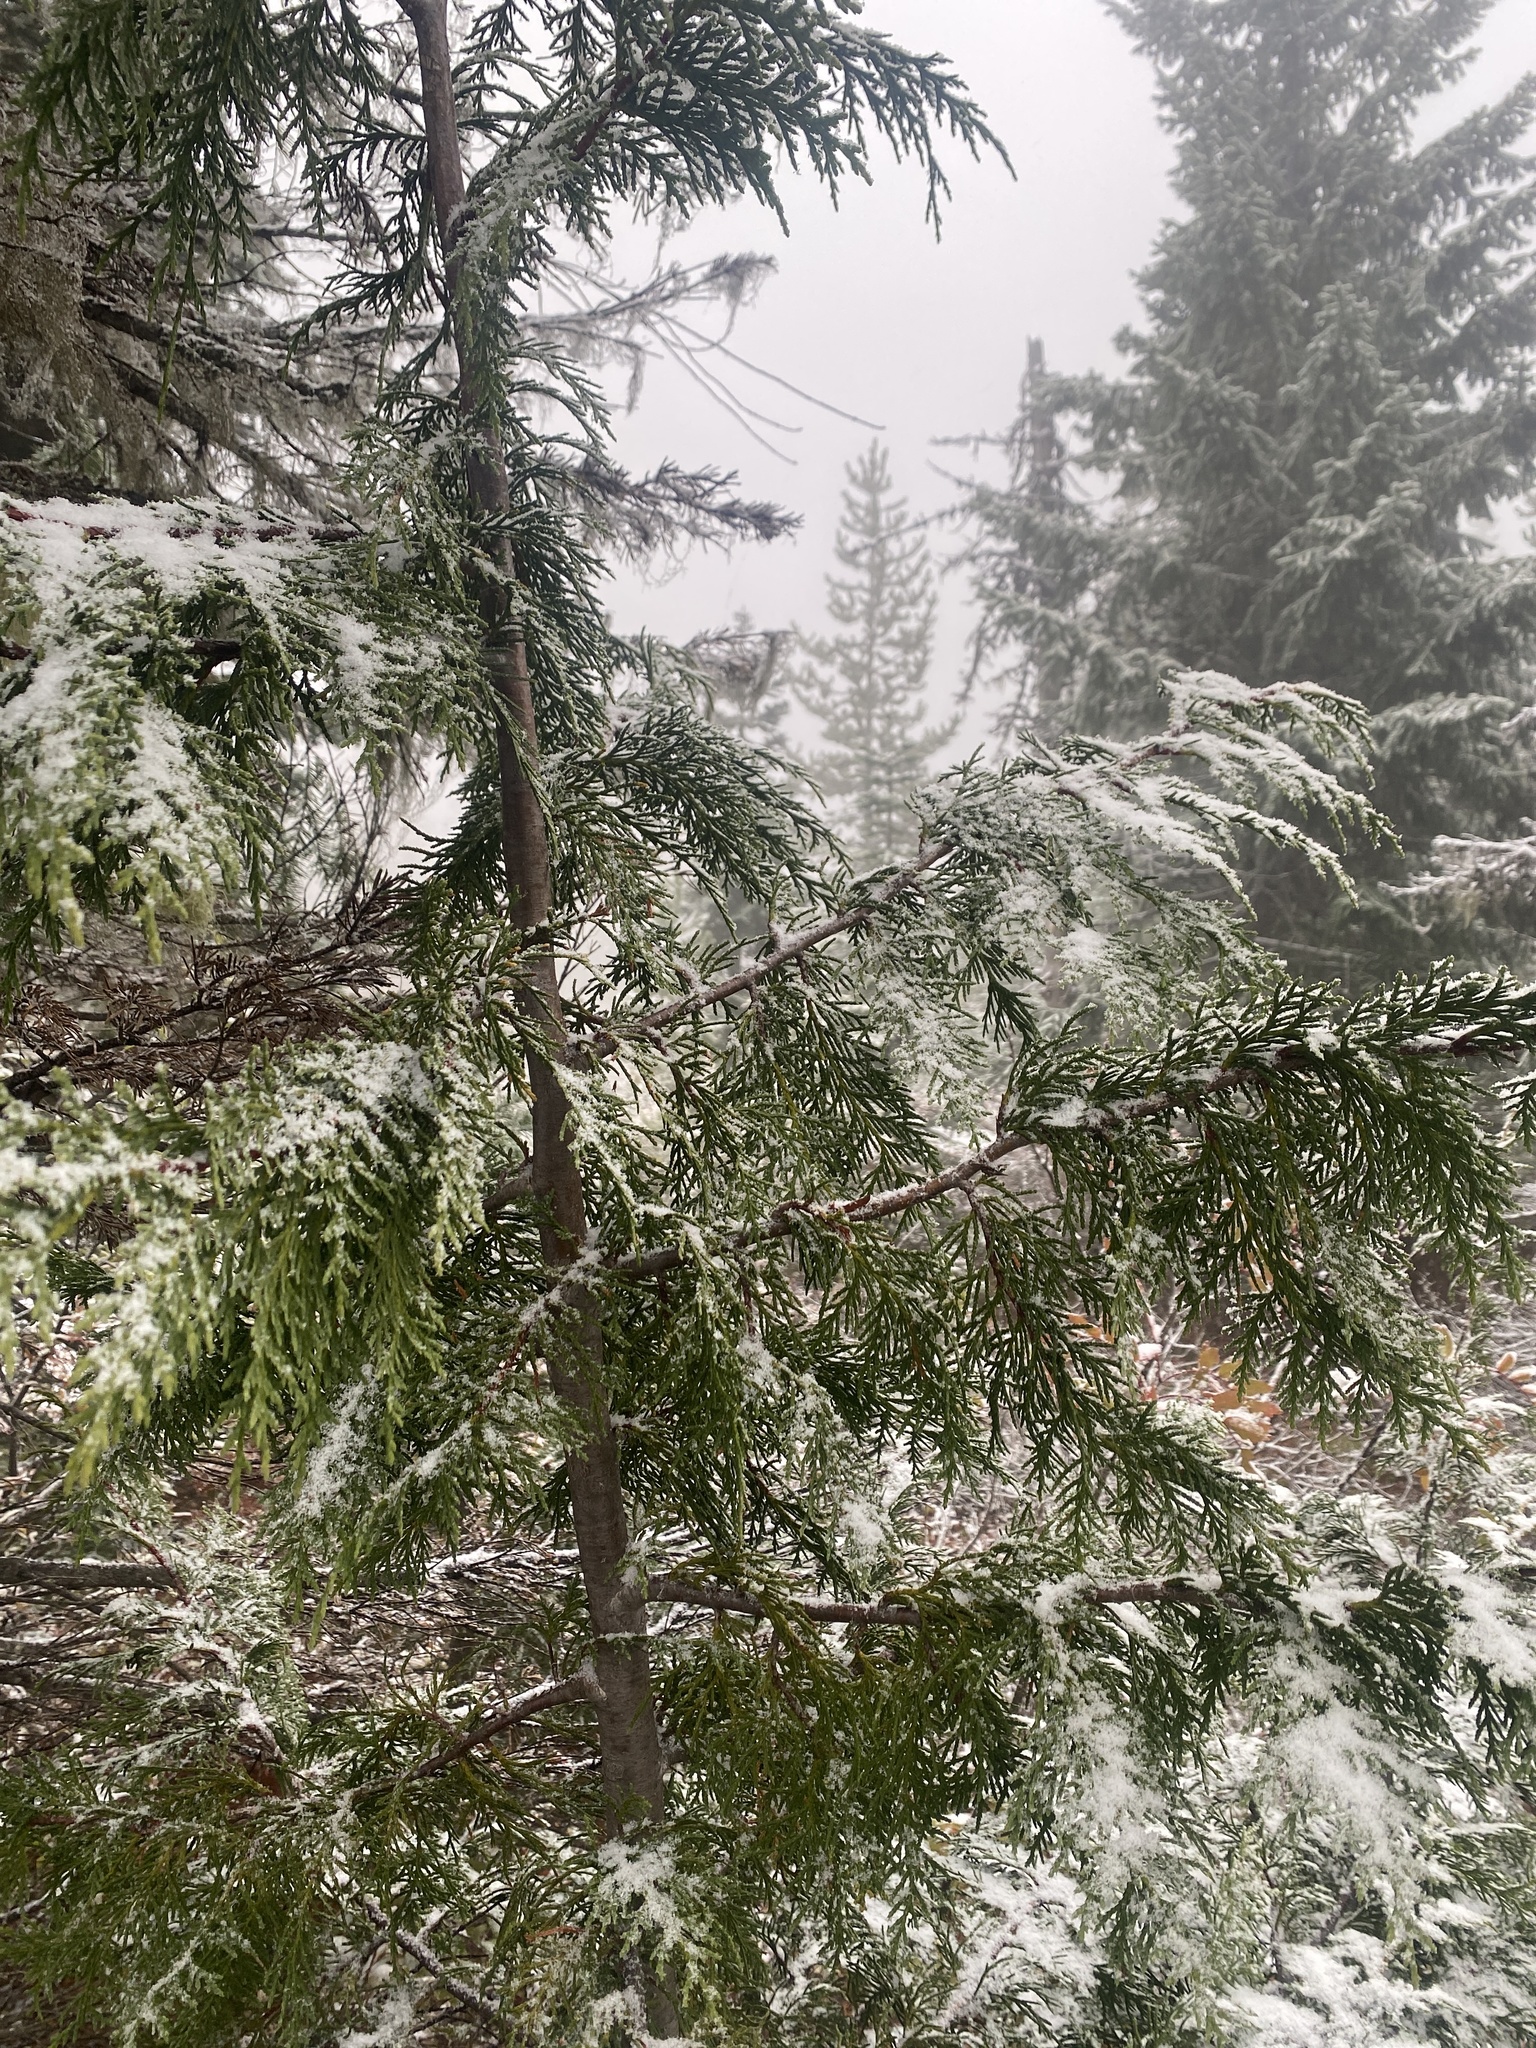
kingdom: Plantae
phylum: Tracheophyta
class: Pinopsida
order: Pinales
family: Cupressaceae
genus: Thuja
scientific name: Thuja plicata
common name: Western red-cedar
